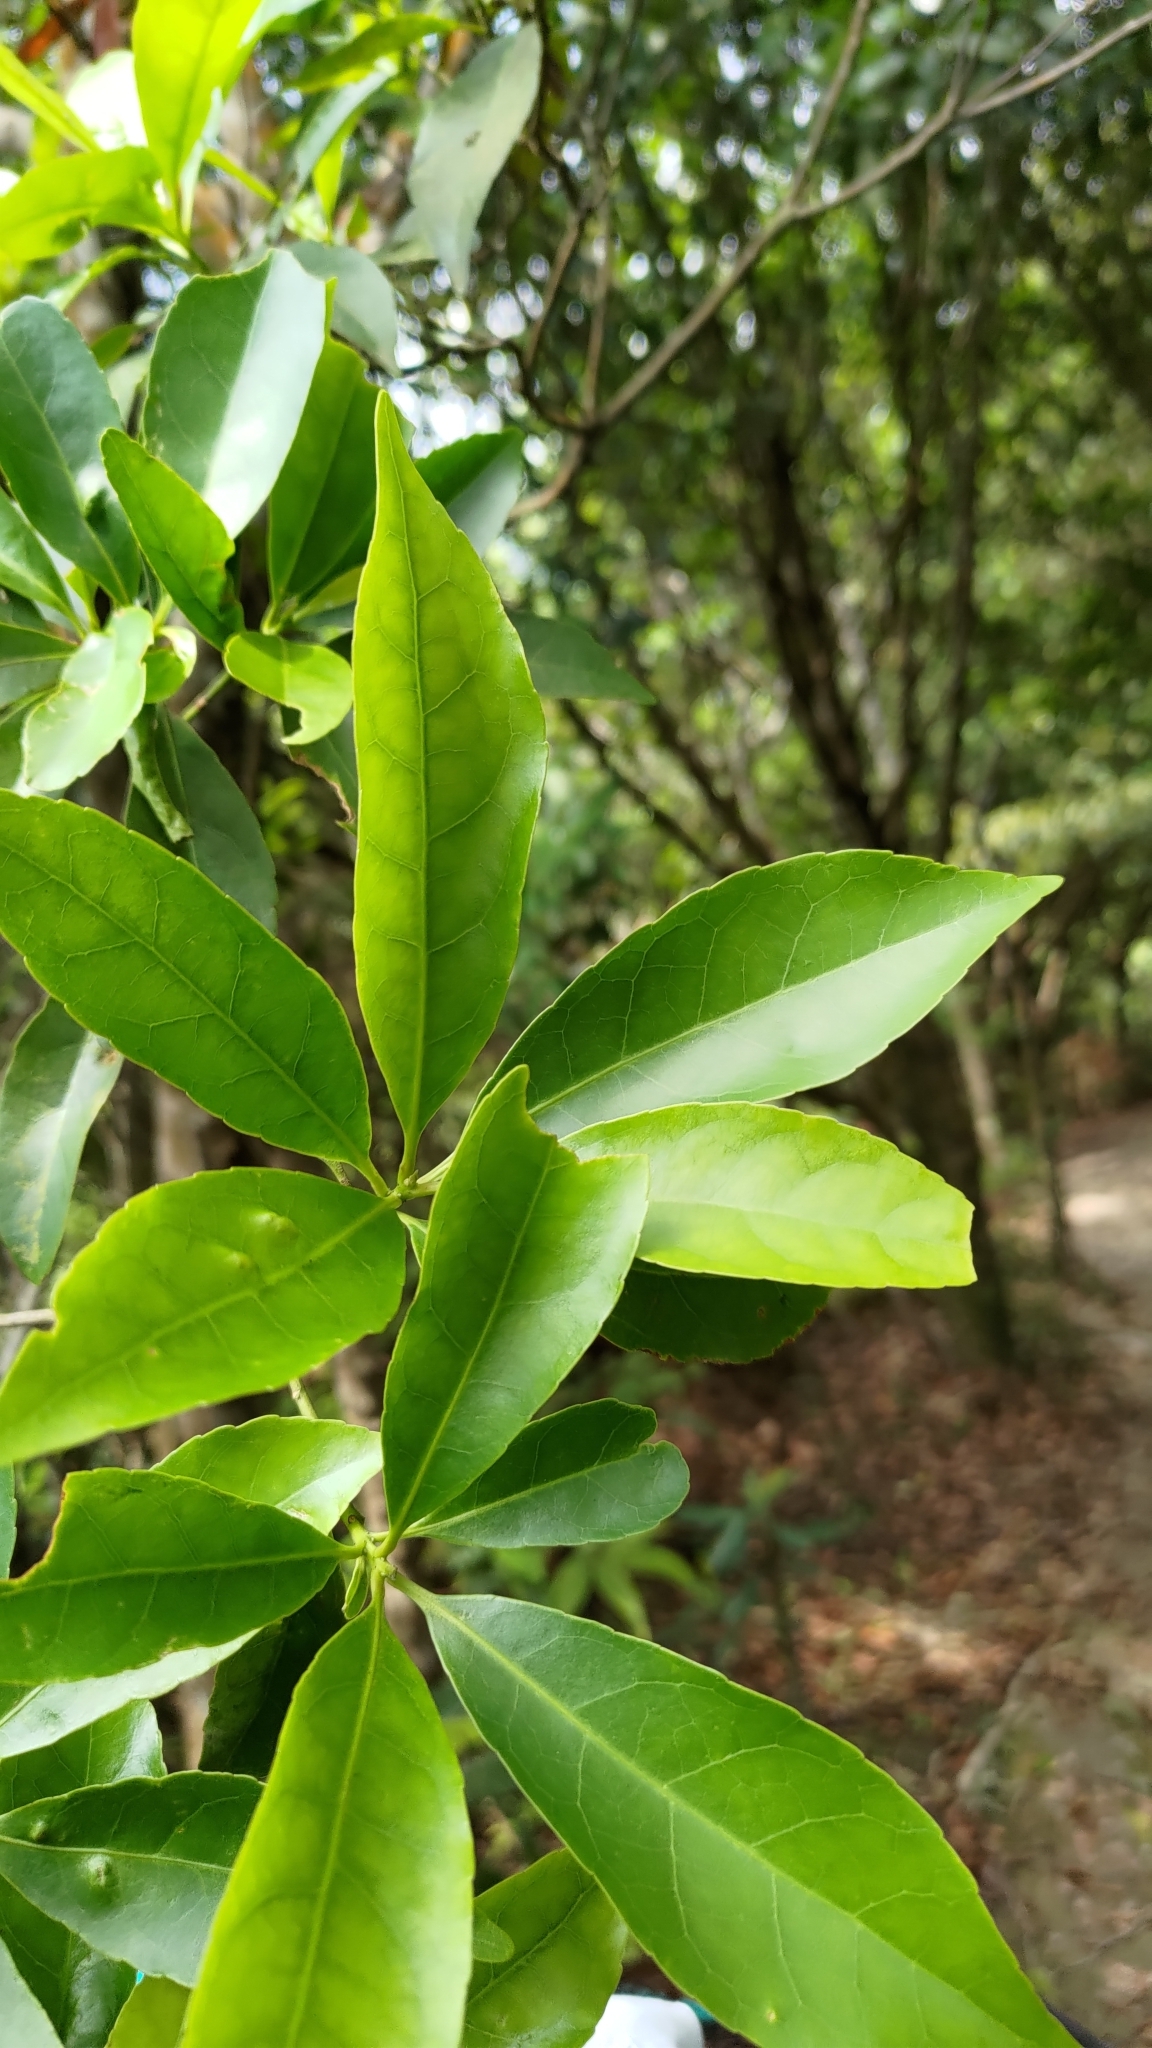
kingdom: Plantae
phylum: Tracheophyta
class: Magnoliopsida
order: Oxalidales
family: Elaeocarpaceae
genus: Elaeocarpus
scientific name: Elaeocarpus decipiens
